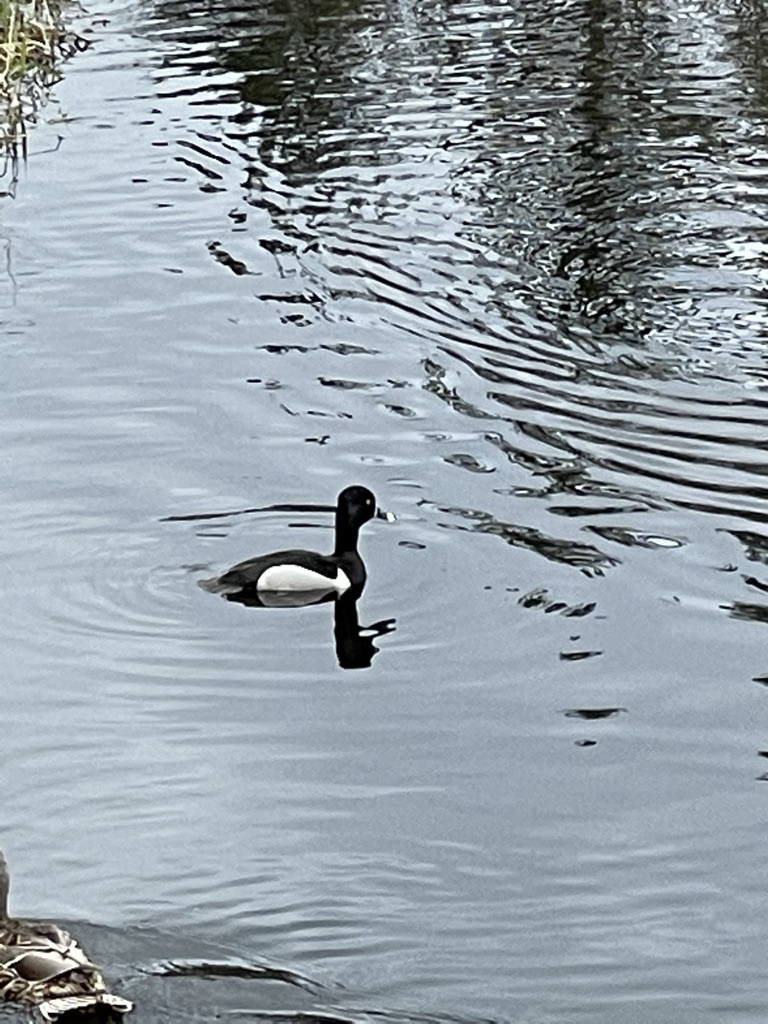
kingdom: Animalia
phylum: Chordata
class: Aves
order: Anseriformes
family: Anatidae
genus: Aythya
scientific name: Aythya collaris
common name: Ring-necked duck
